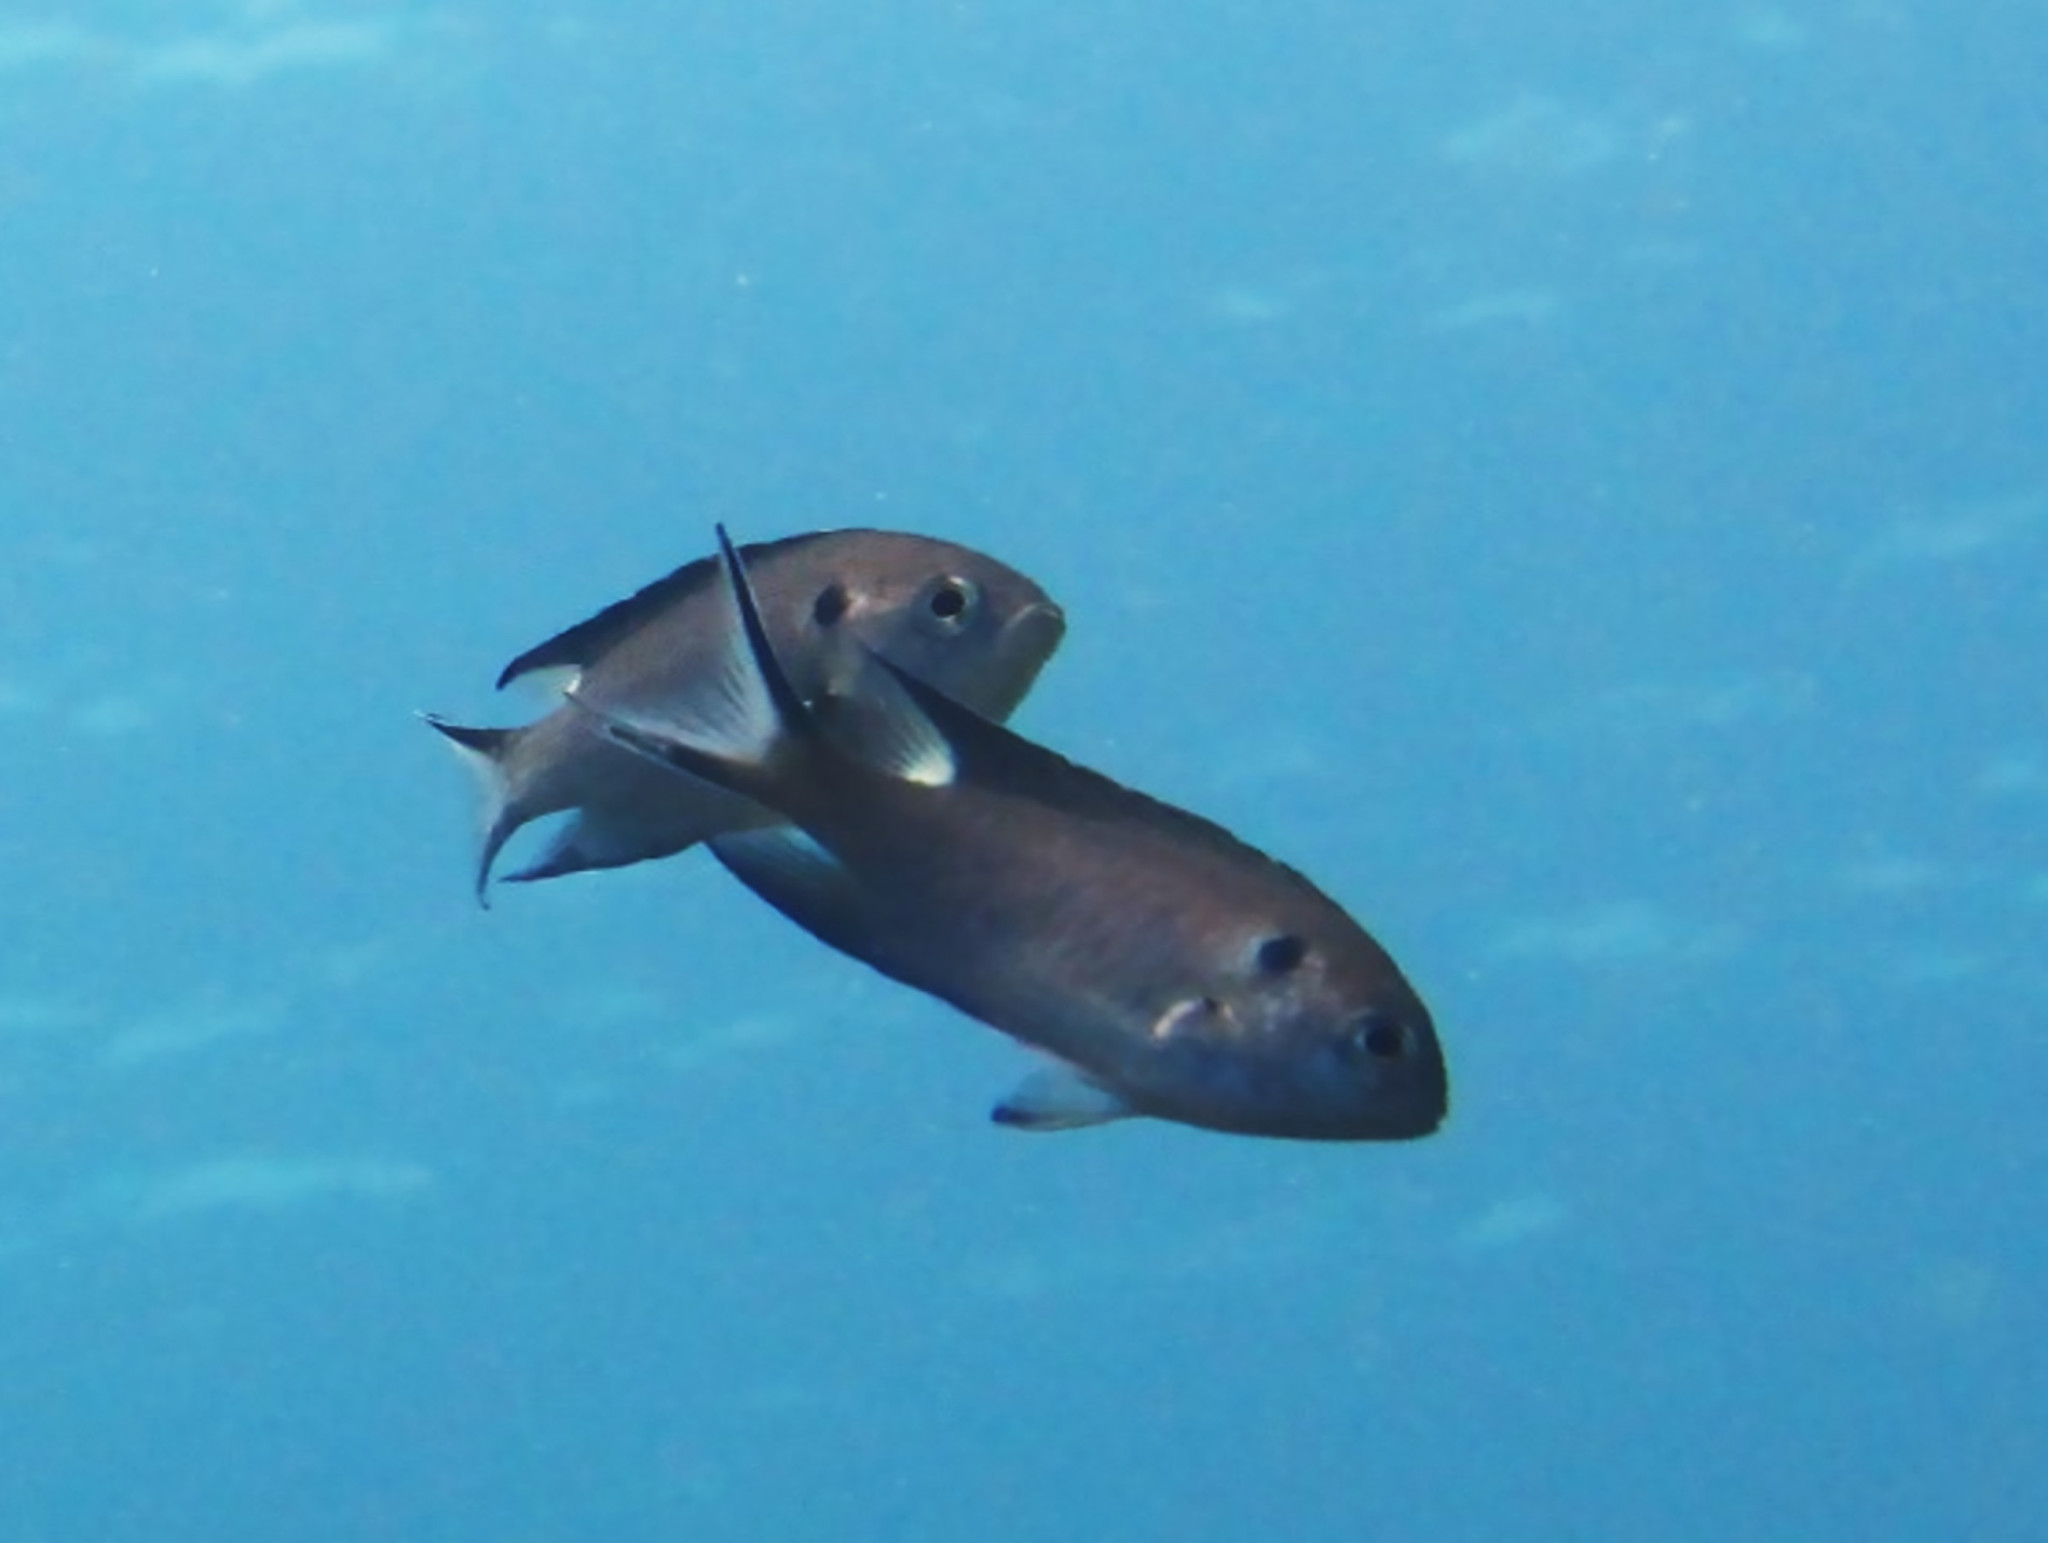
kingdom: Animalia
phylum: Chordata
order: Perciformes
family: Pomacentridae
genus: Neopomacentrus
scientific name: Neopomacentrus cyanomos
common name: Regal demoiselle
